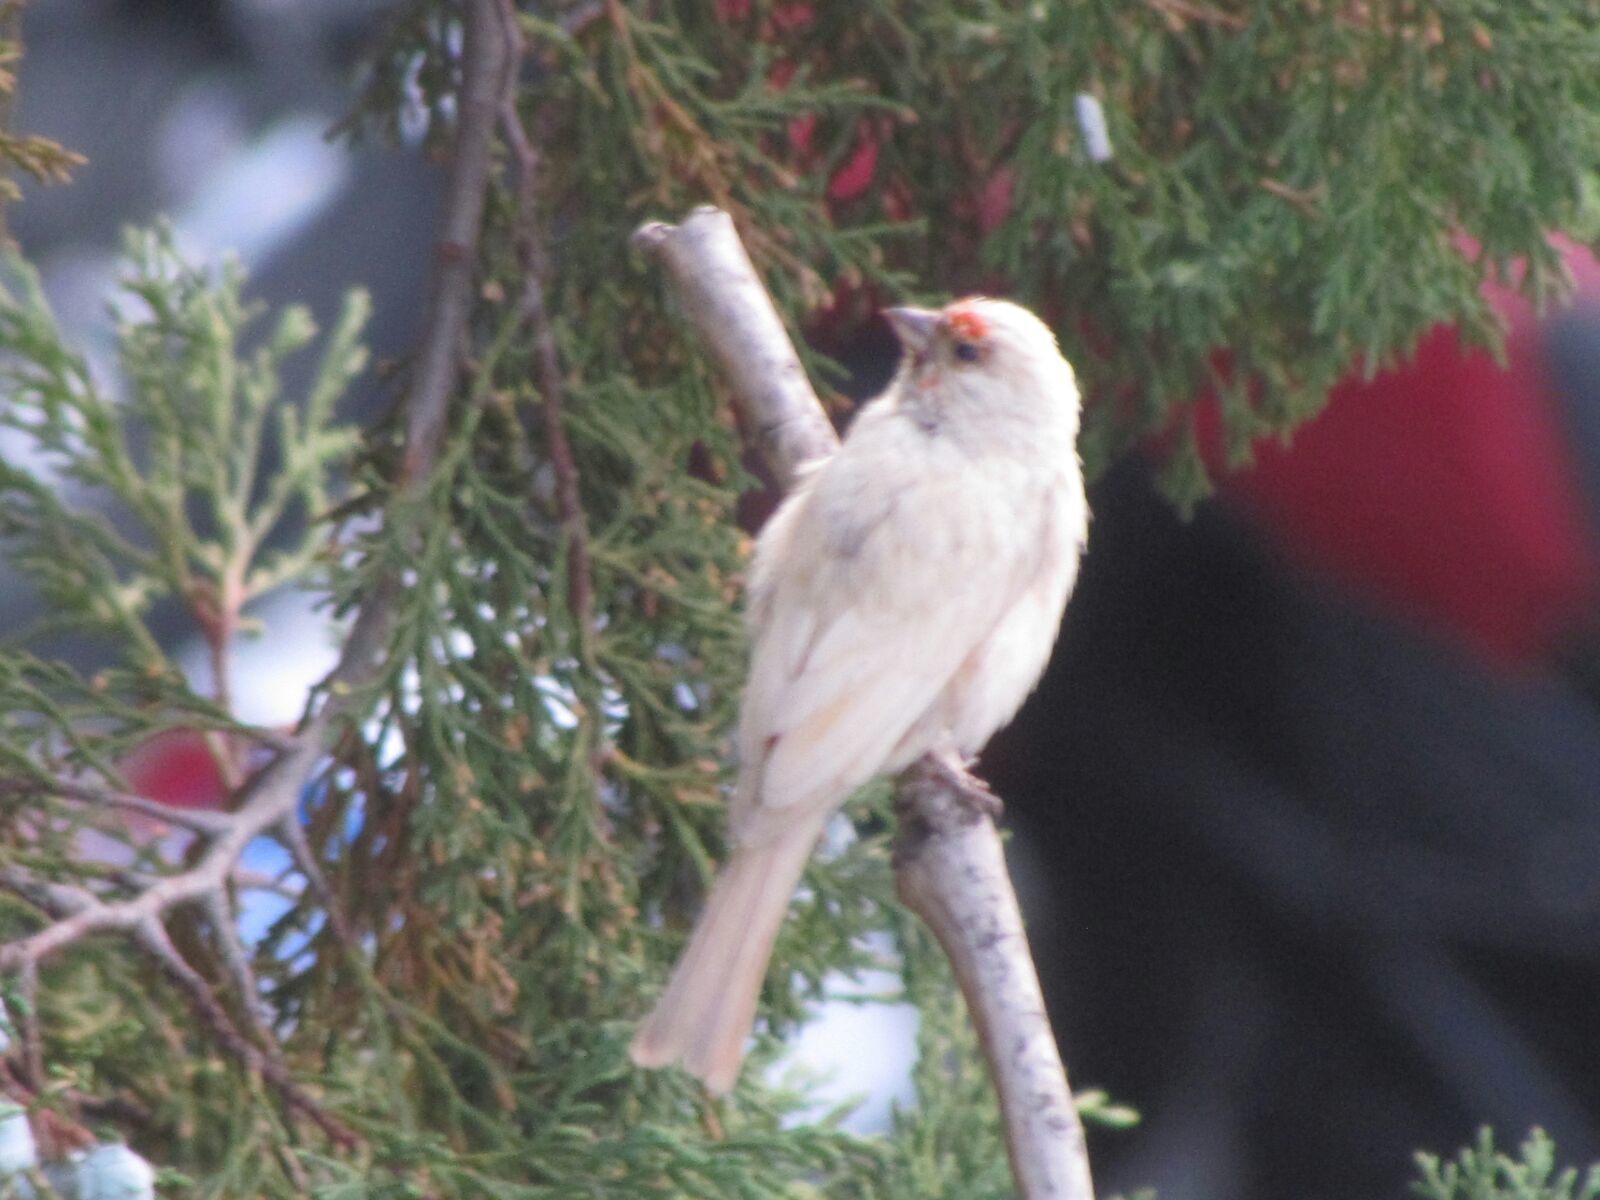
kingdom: Animalia
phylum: Chordata
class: Aves
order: Passeriformes
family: Fringillidae
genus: Haemorhous
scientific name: Haemorhous mexicanus
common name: House finch
